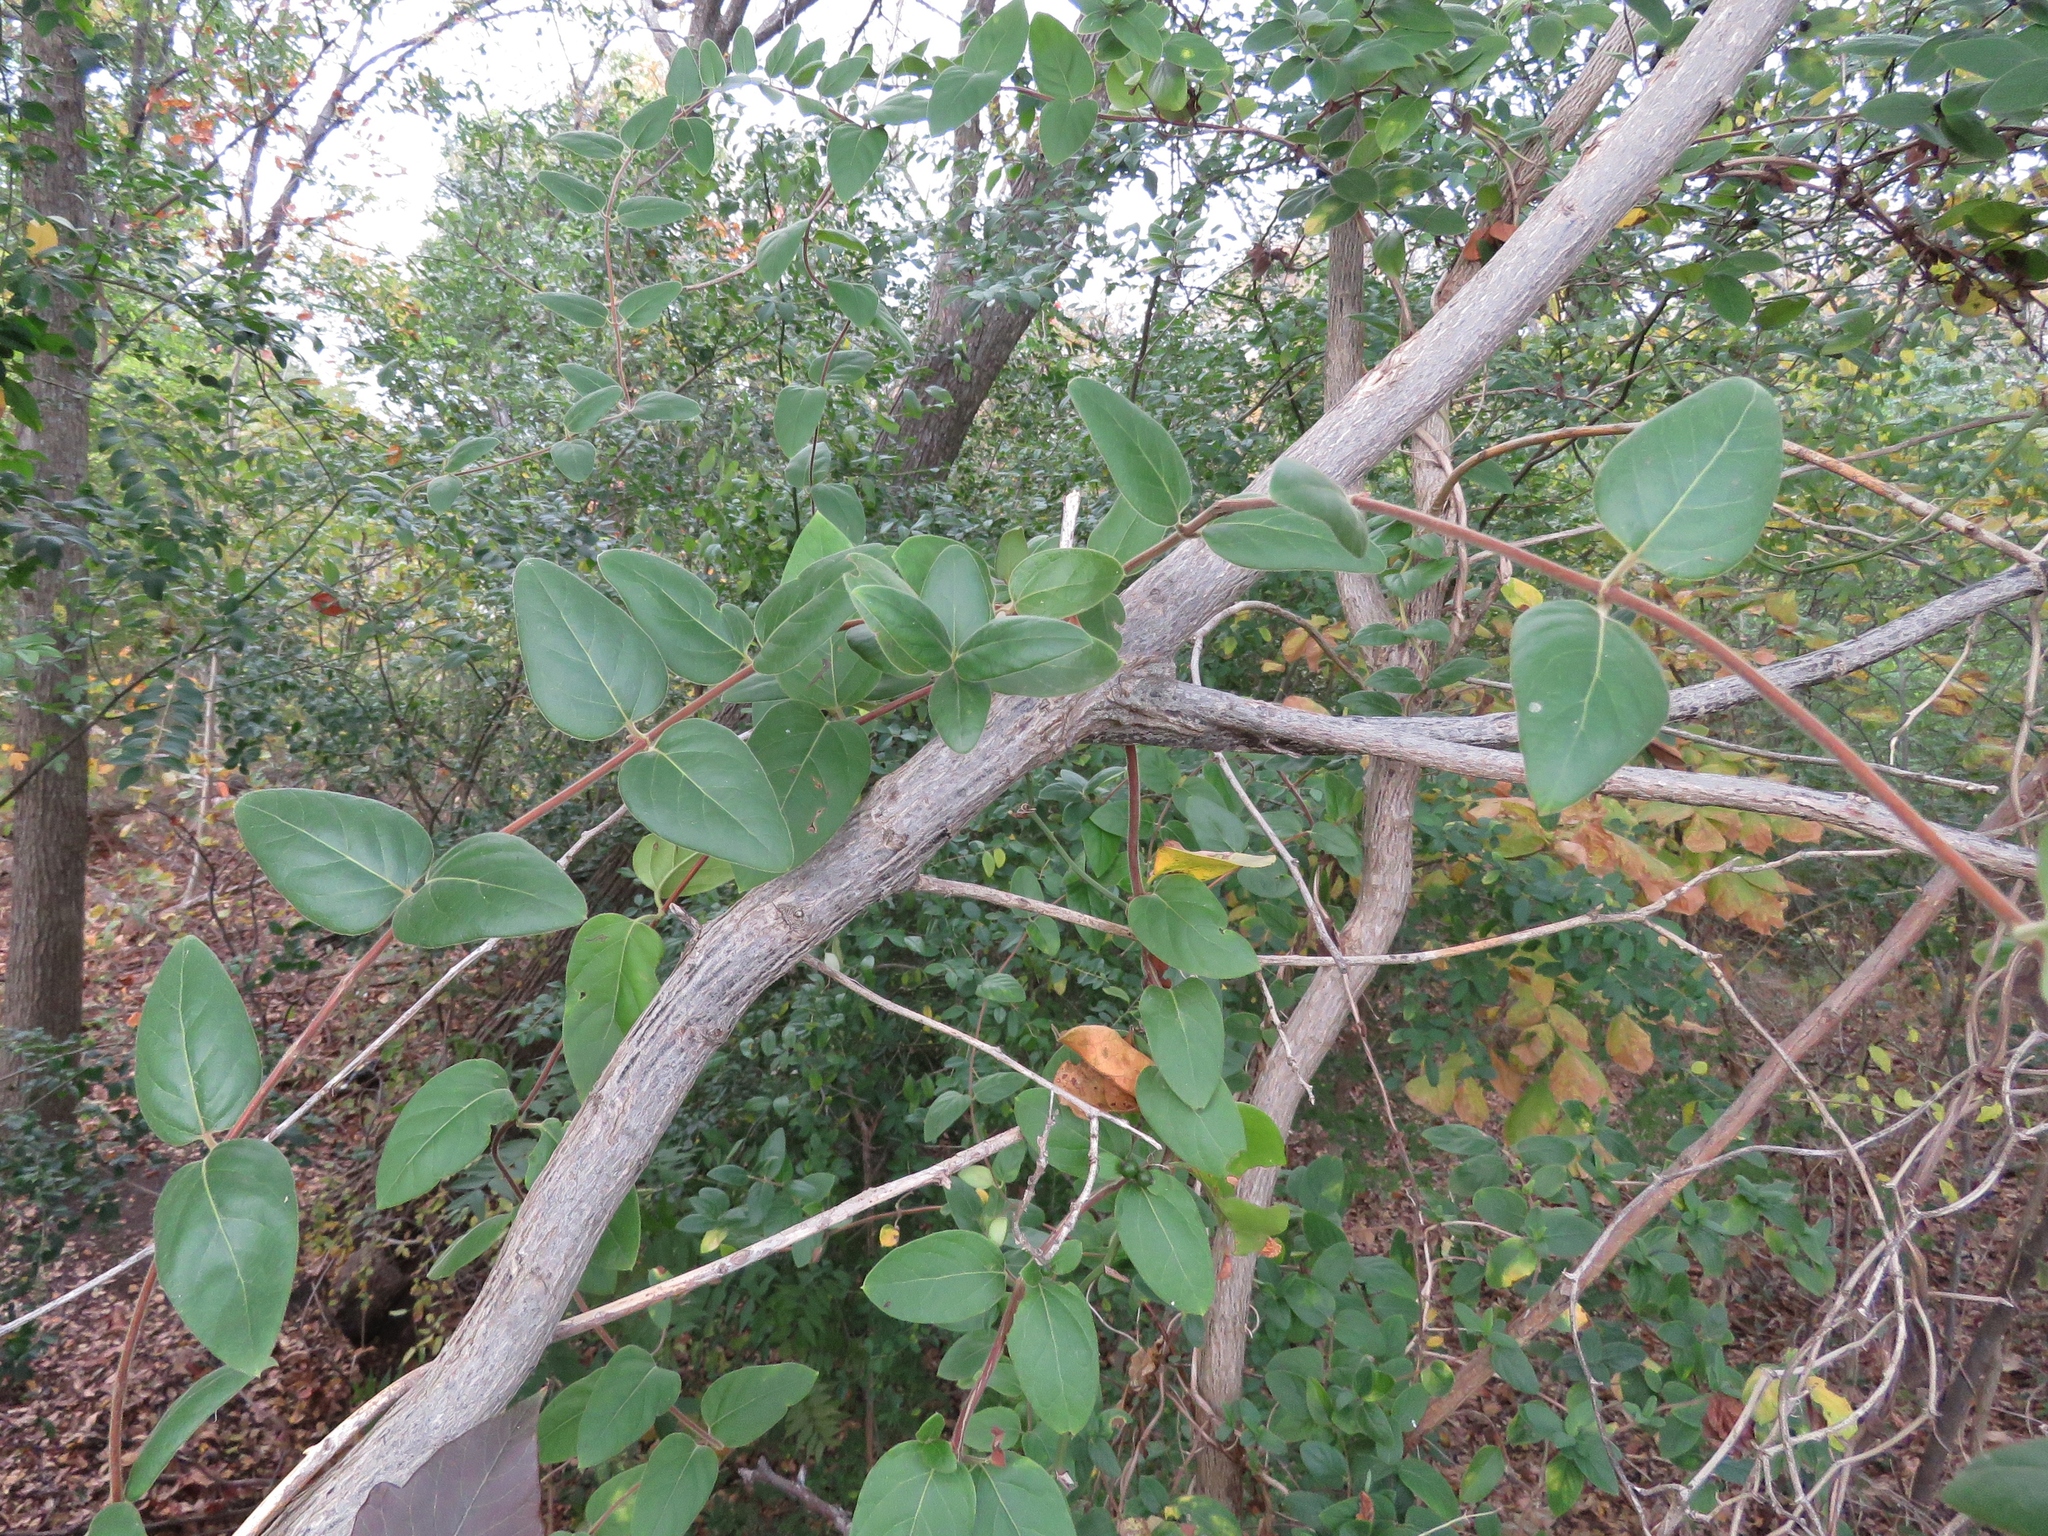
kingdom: Plantae
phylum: Tracheophyta
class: Magnoliopsida
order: Dipsacales
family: Caprifoliaceae
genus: Lonicera
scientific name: Lonicera japonica
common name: Japanese honeysuckle
